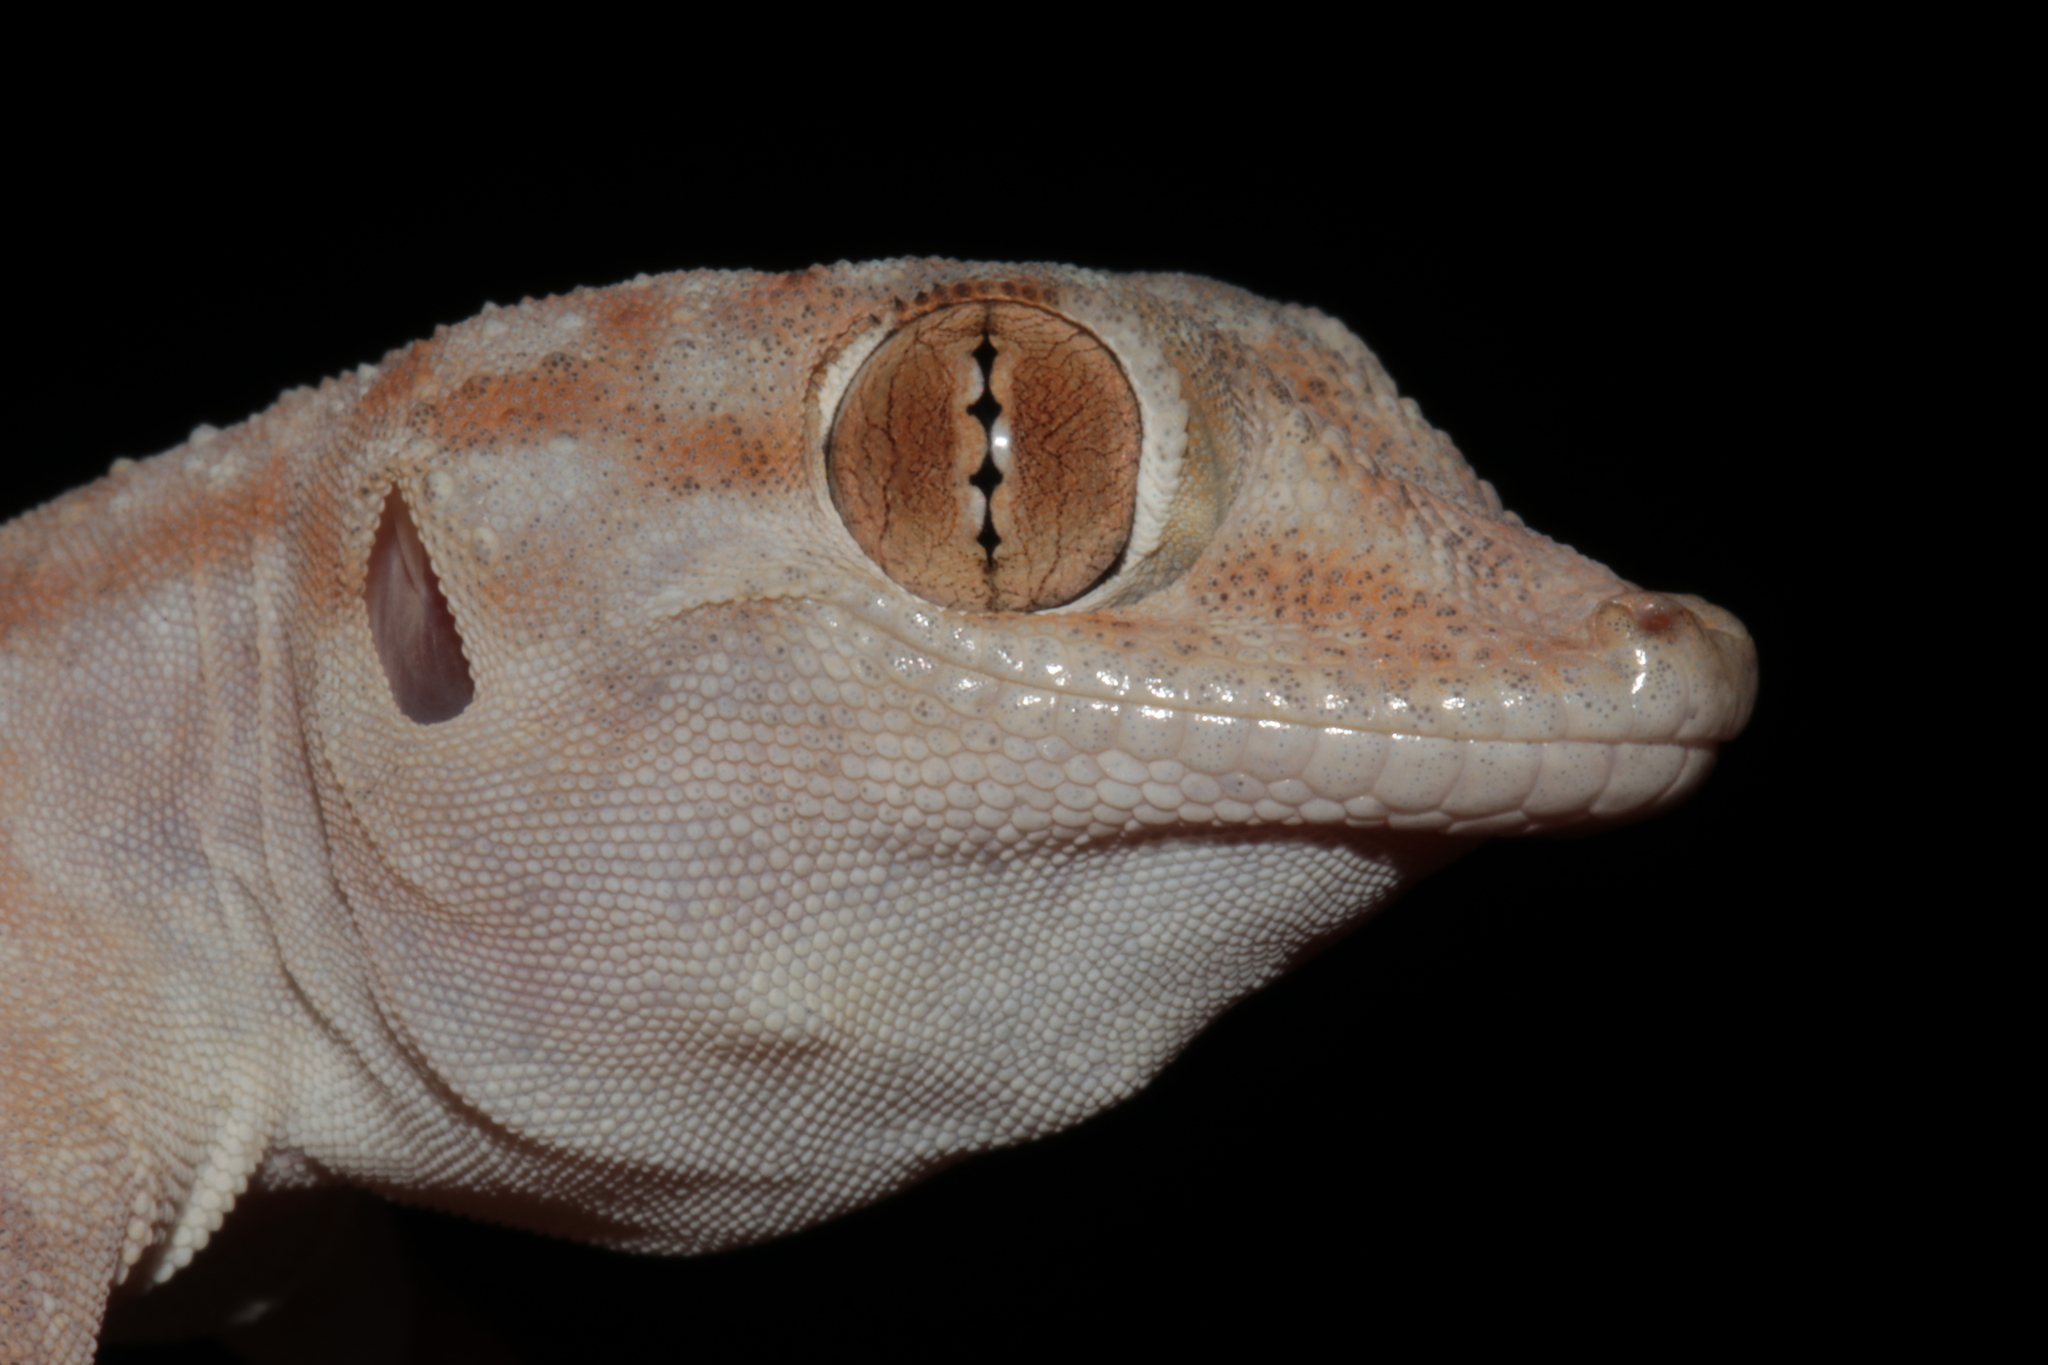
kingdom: Animalia
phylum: Chordata
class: Squamata
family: Phyllodactylidae
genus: Ptyodactylus
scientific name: Ptyodactylus hasselquistii
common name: Hasselquist’s fan-footed gecko
